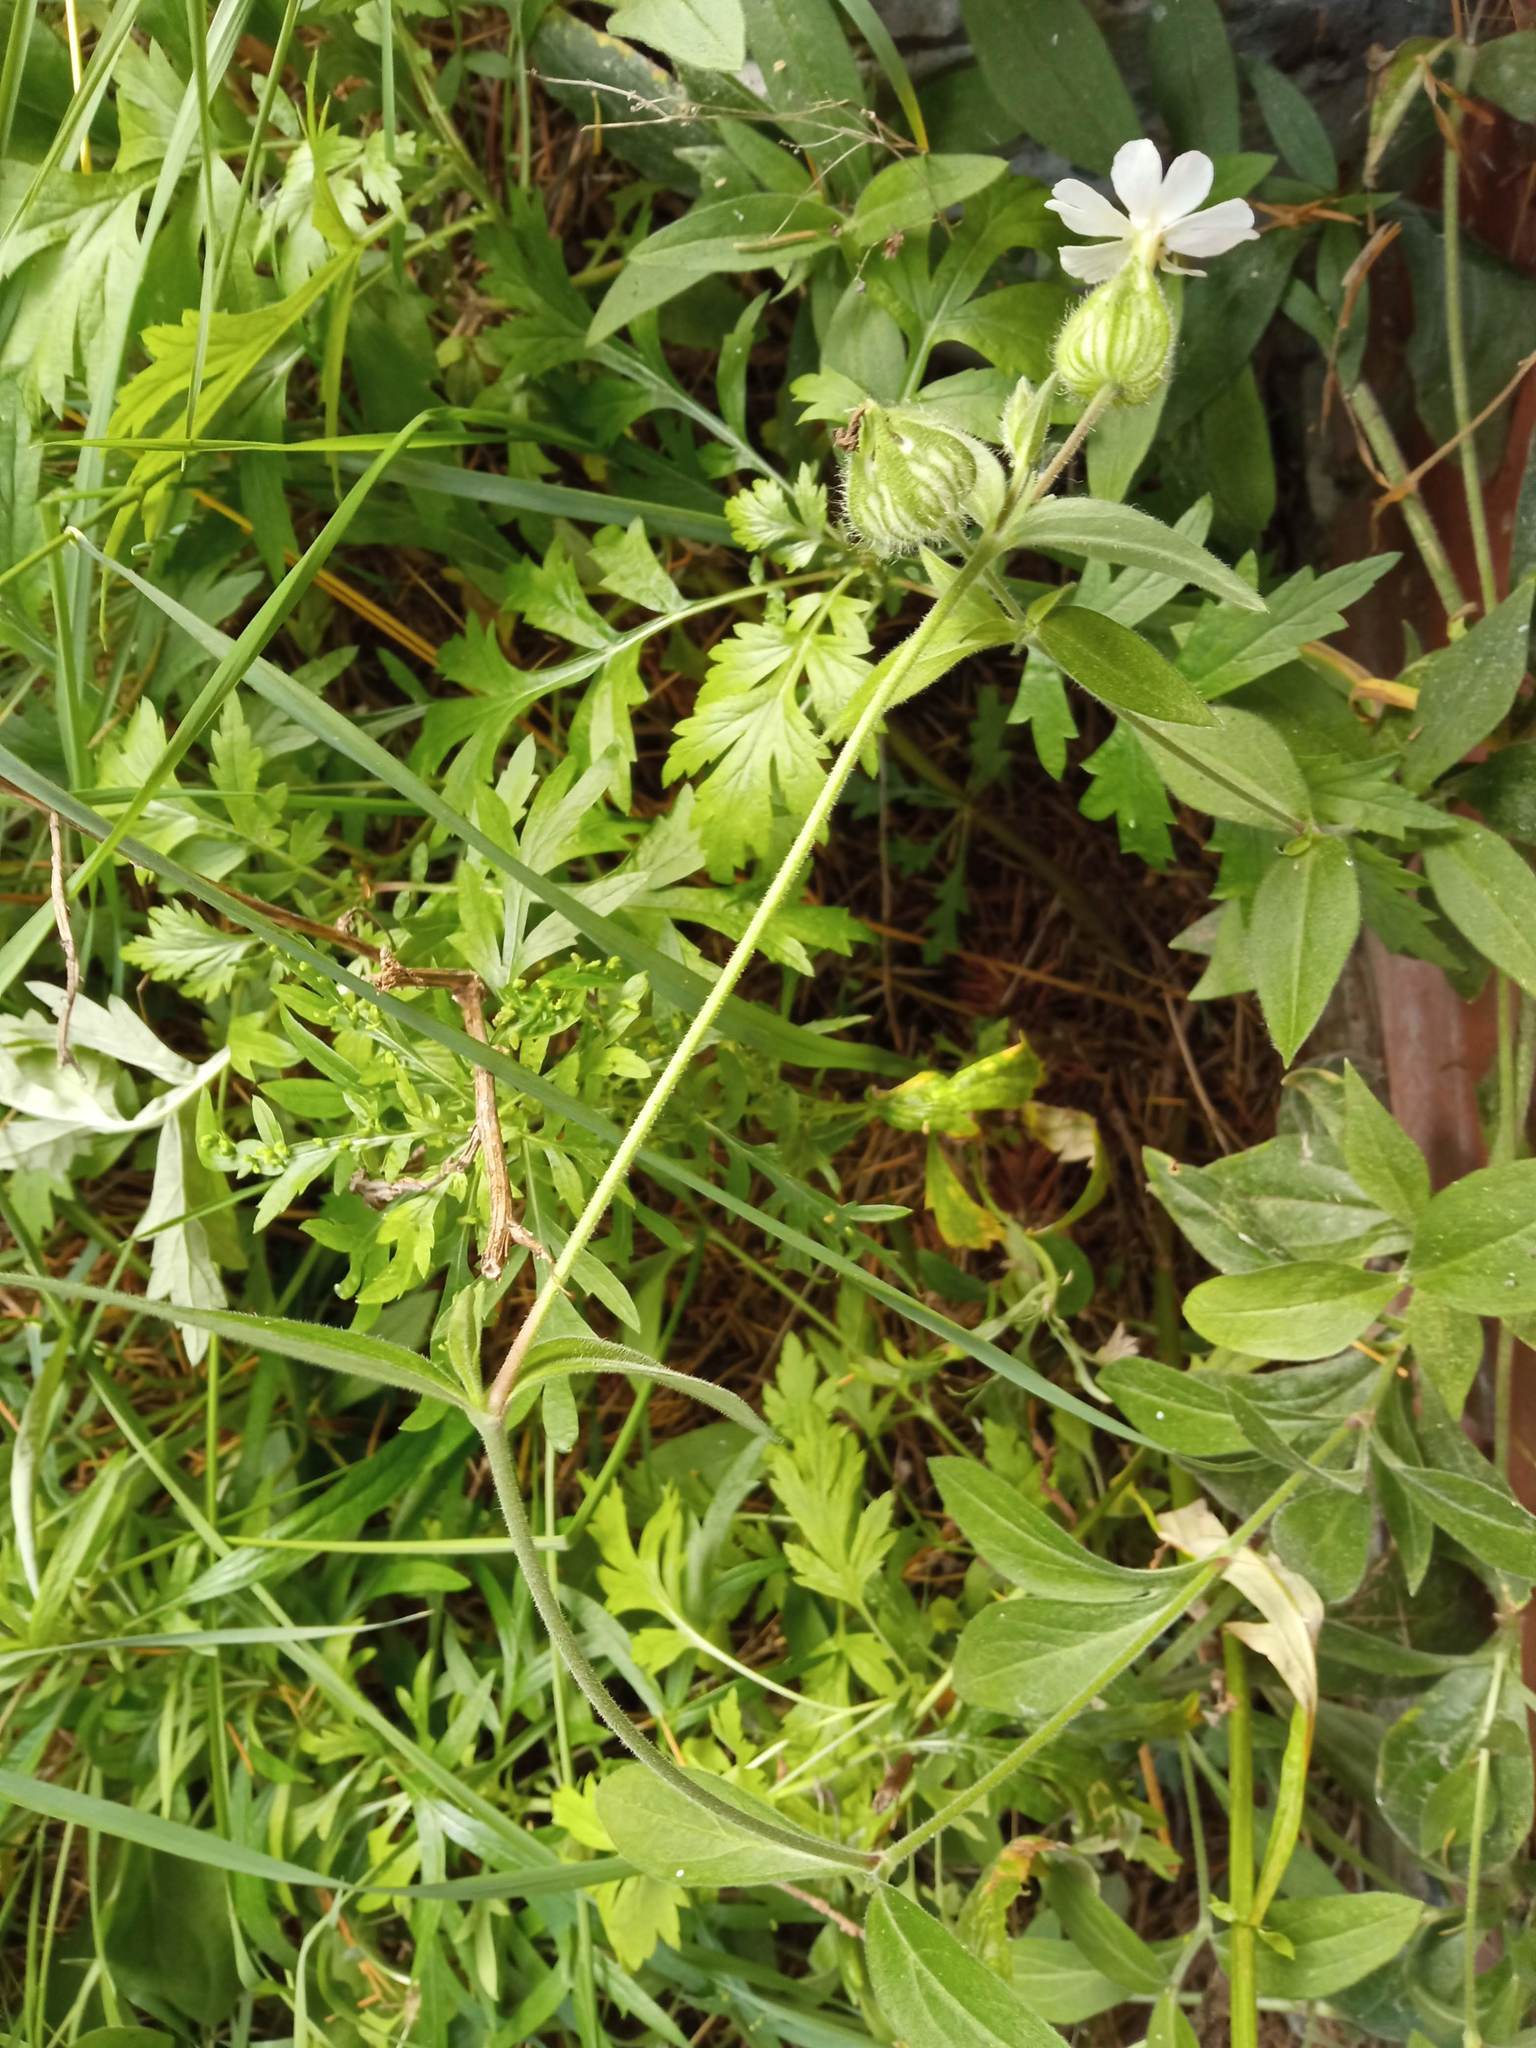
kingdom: Plantae
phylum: Tracheophyta
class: Magnoliopsida
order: Caryophyllales
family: Caryophyllaceae
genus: Silene
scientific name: Silene latifolia
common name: White campion
